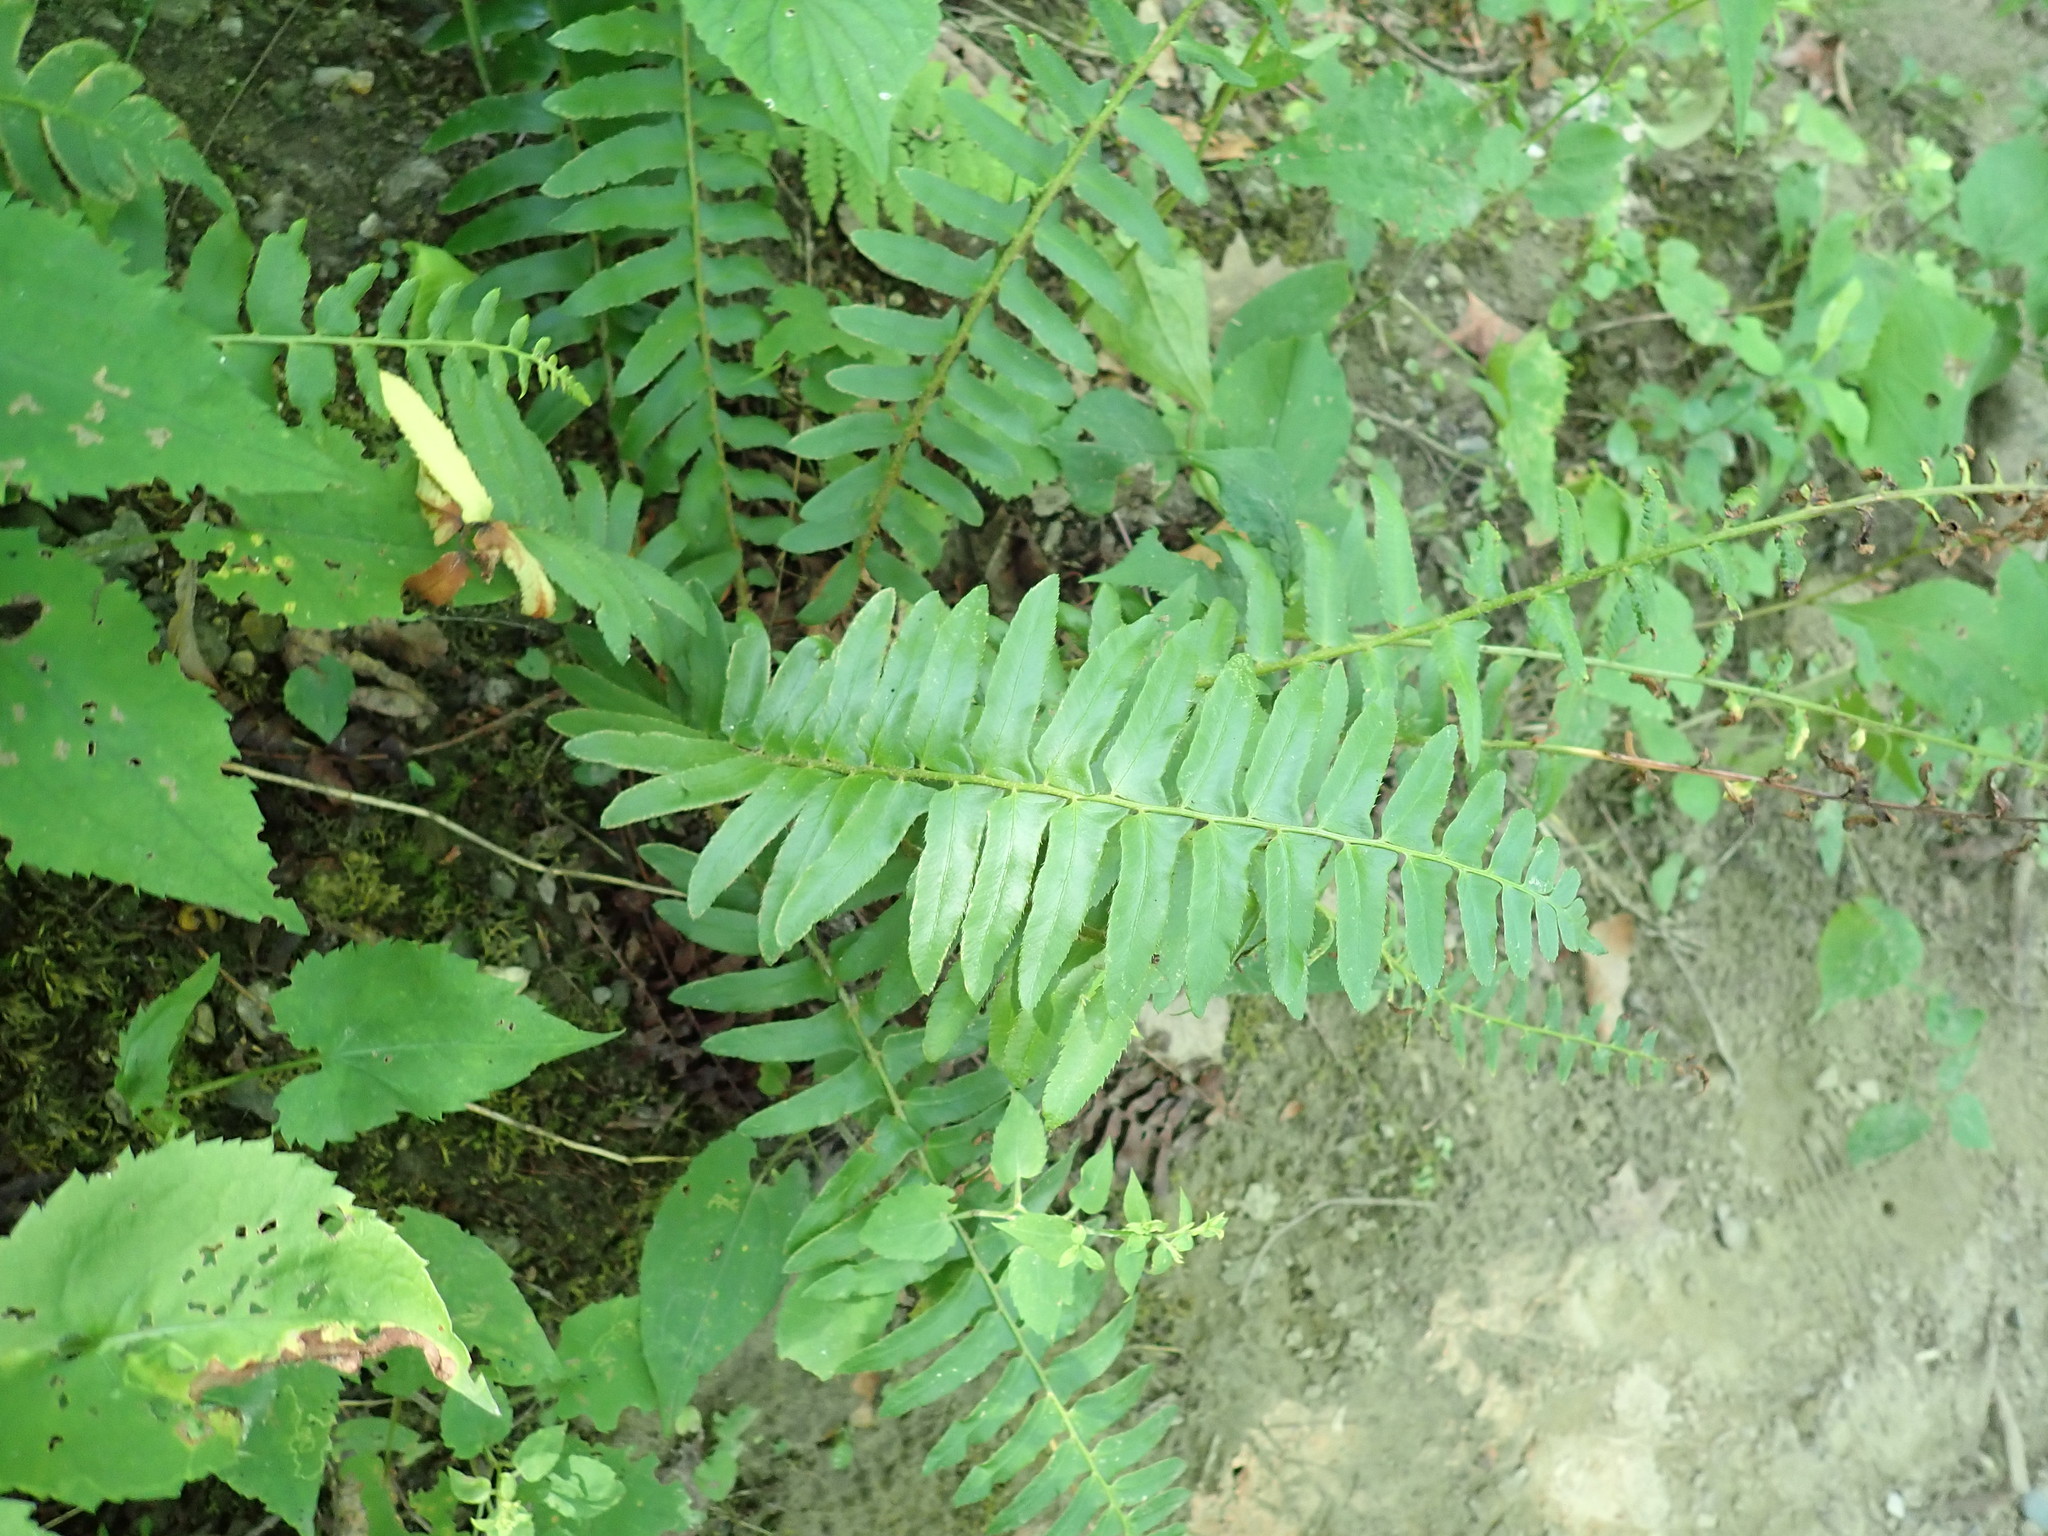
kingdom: Plantae
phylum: Tracheophyta
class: Polypodiopsida
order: Polypodiales
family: Dryopteridaceae
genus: Polystichum
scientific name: Polystichum acrostichoides
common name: Christmas fern
